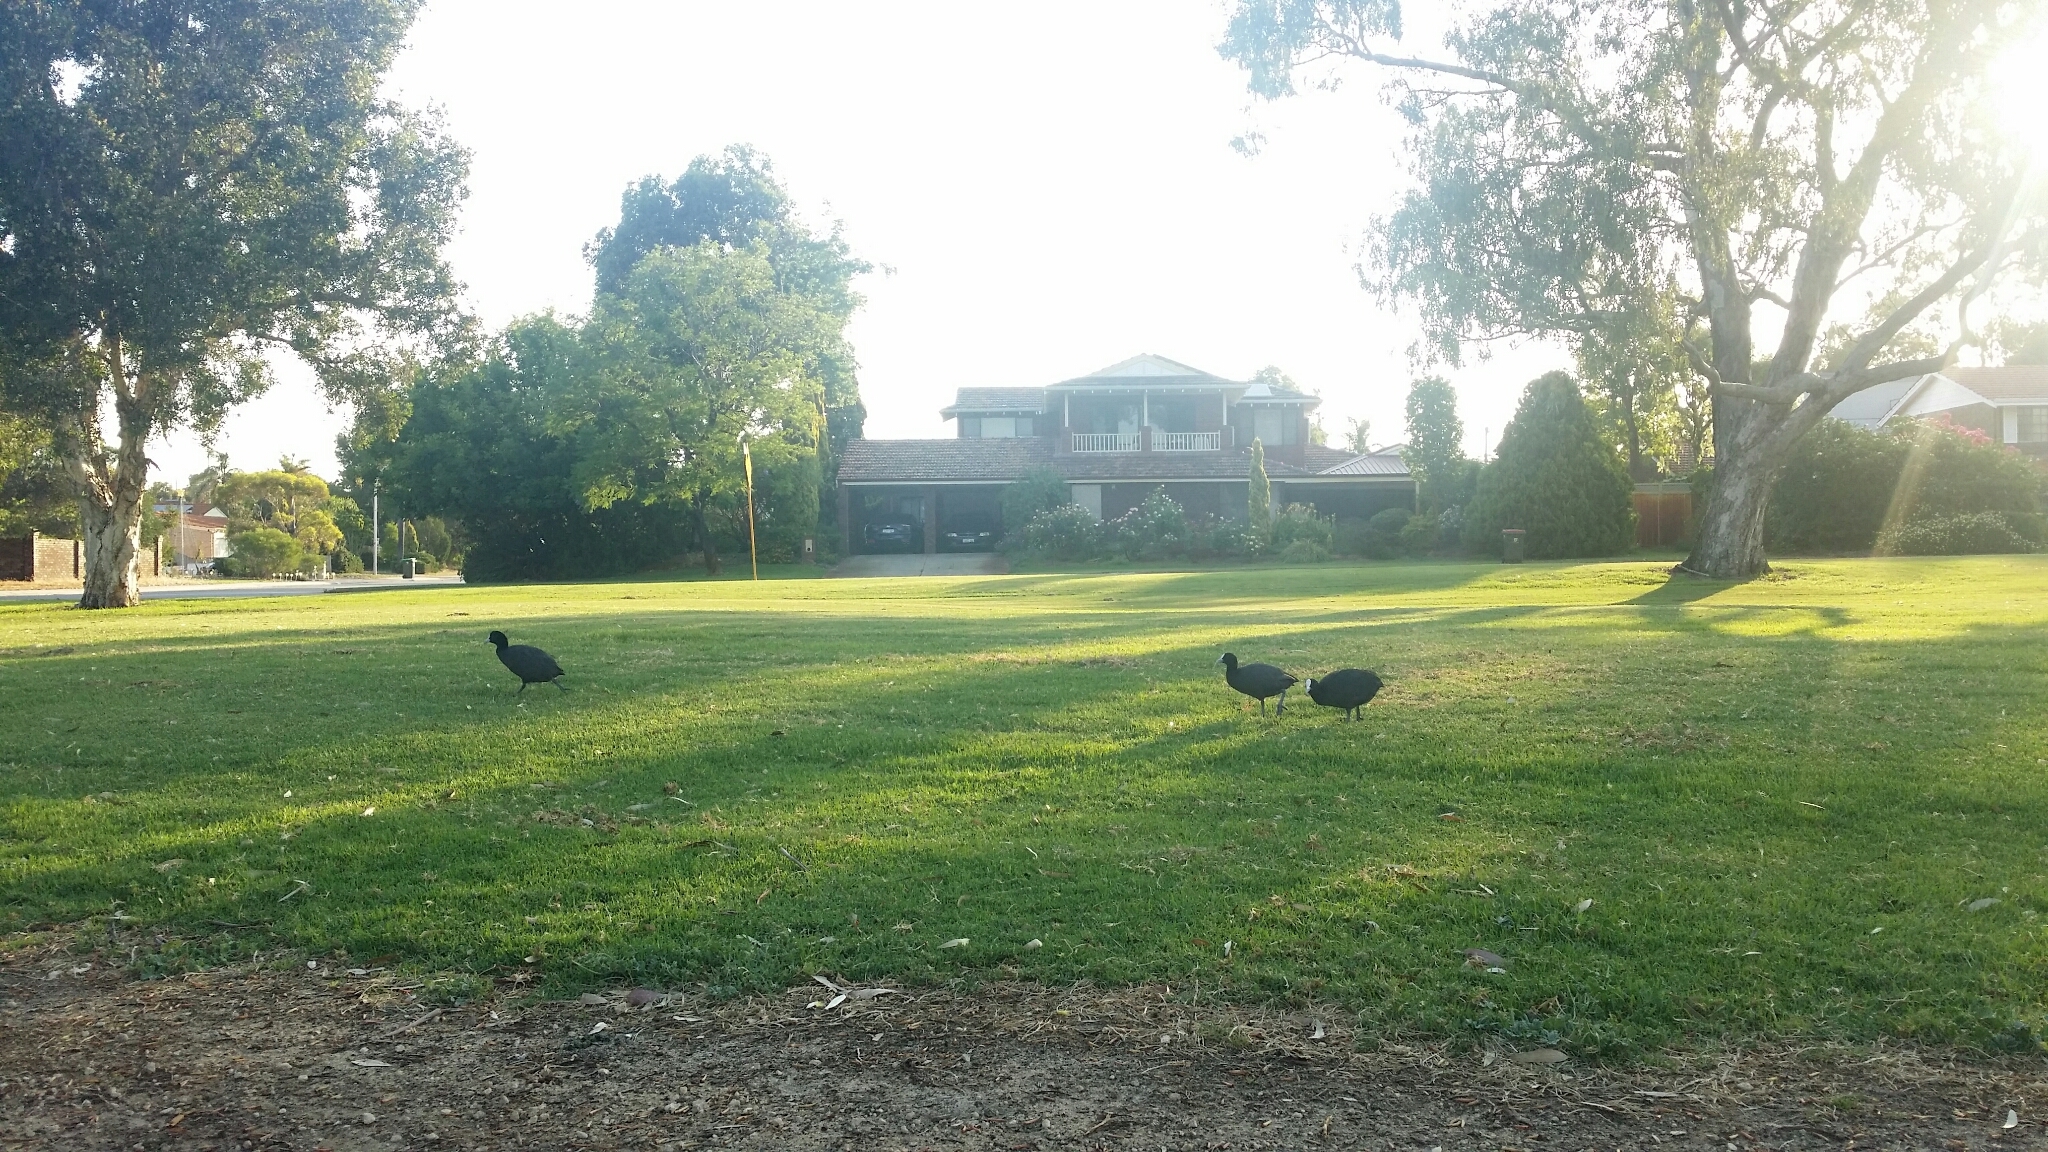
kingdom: Animalia
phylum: Chordata
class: Aves
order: Gruiformes
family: Rallidae
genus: Fulica
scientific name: Fulica atra
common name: Eurasian coot
